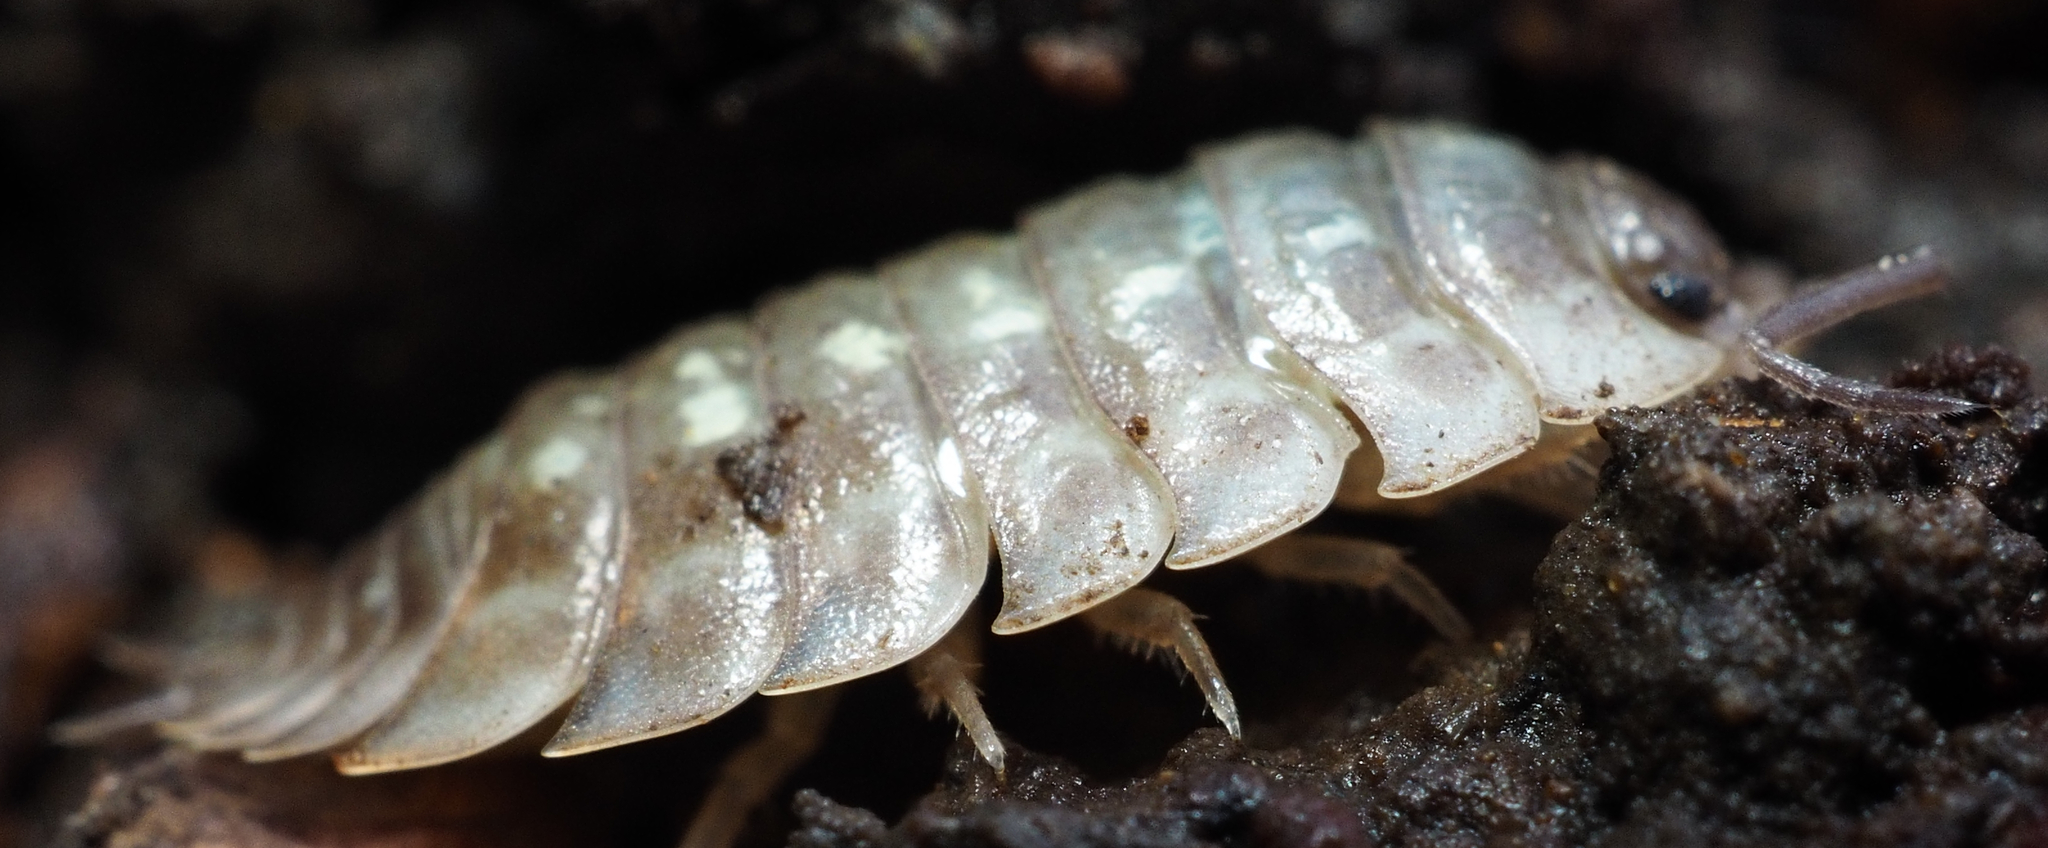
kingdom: Animalia
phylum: Arthropoda
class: Malacostraca
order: Isopoda
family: Oniscidae
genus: Oniscus
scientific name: Oniscus asellus
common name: Common shiny woodlouse
